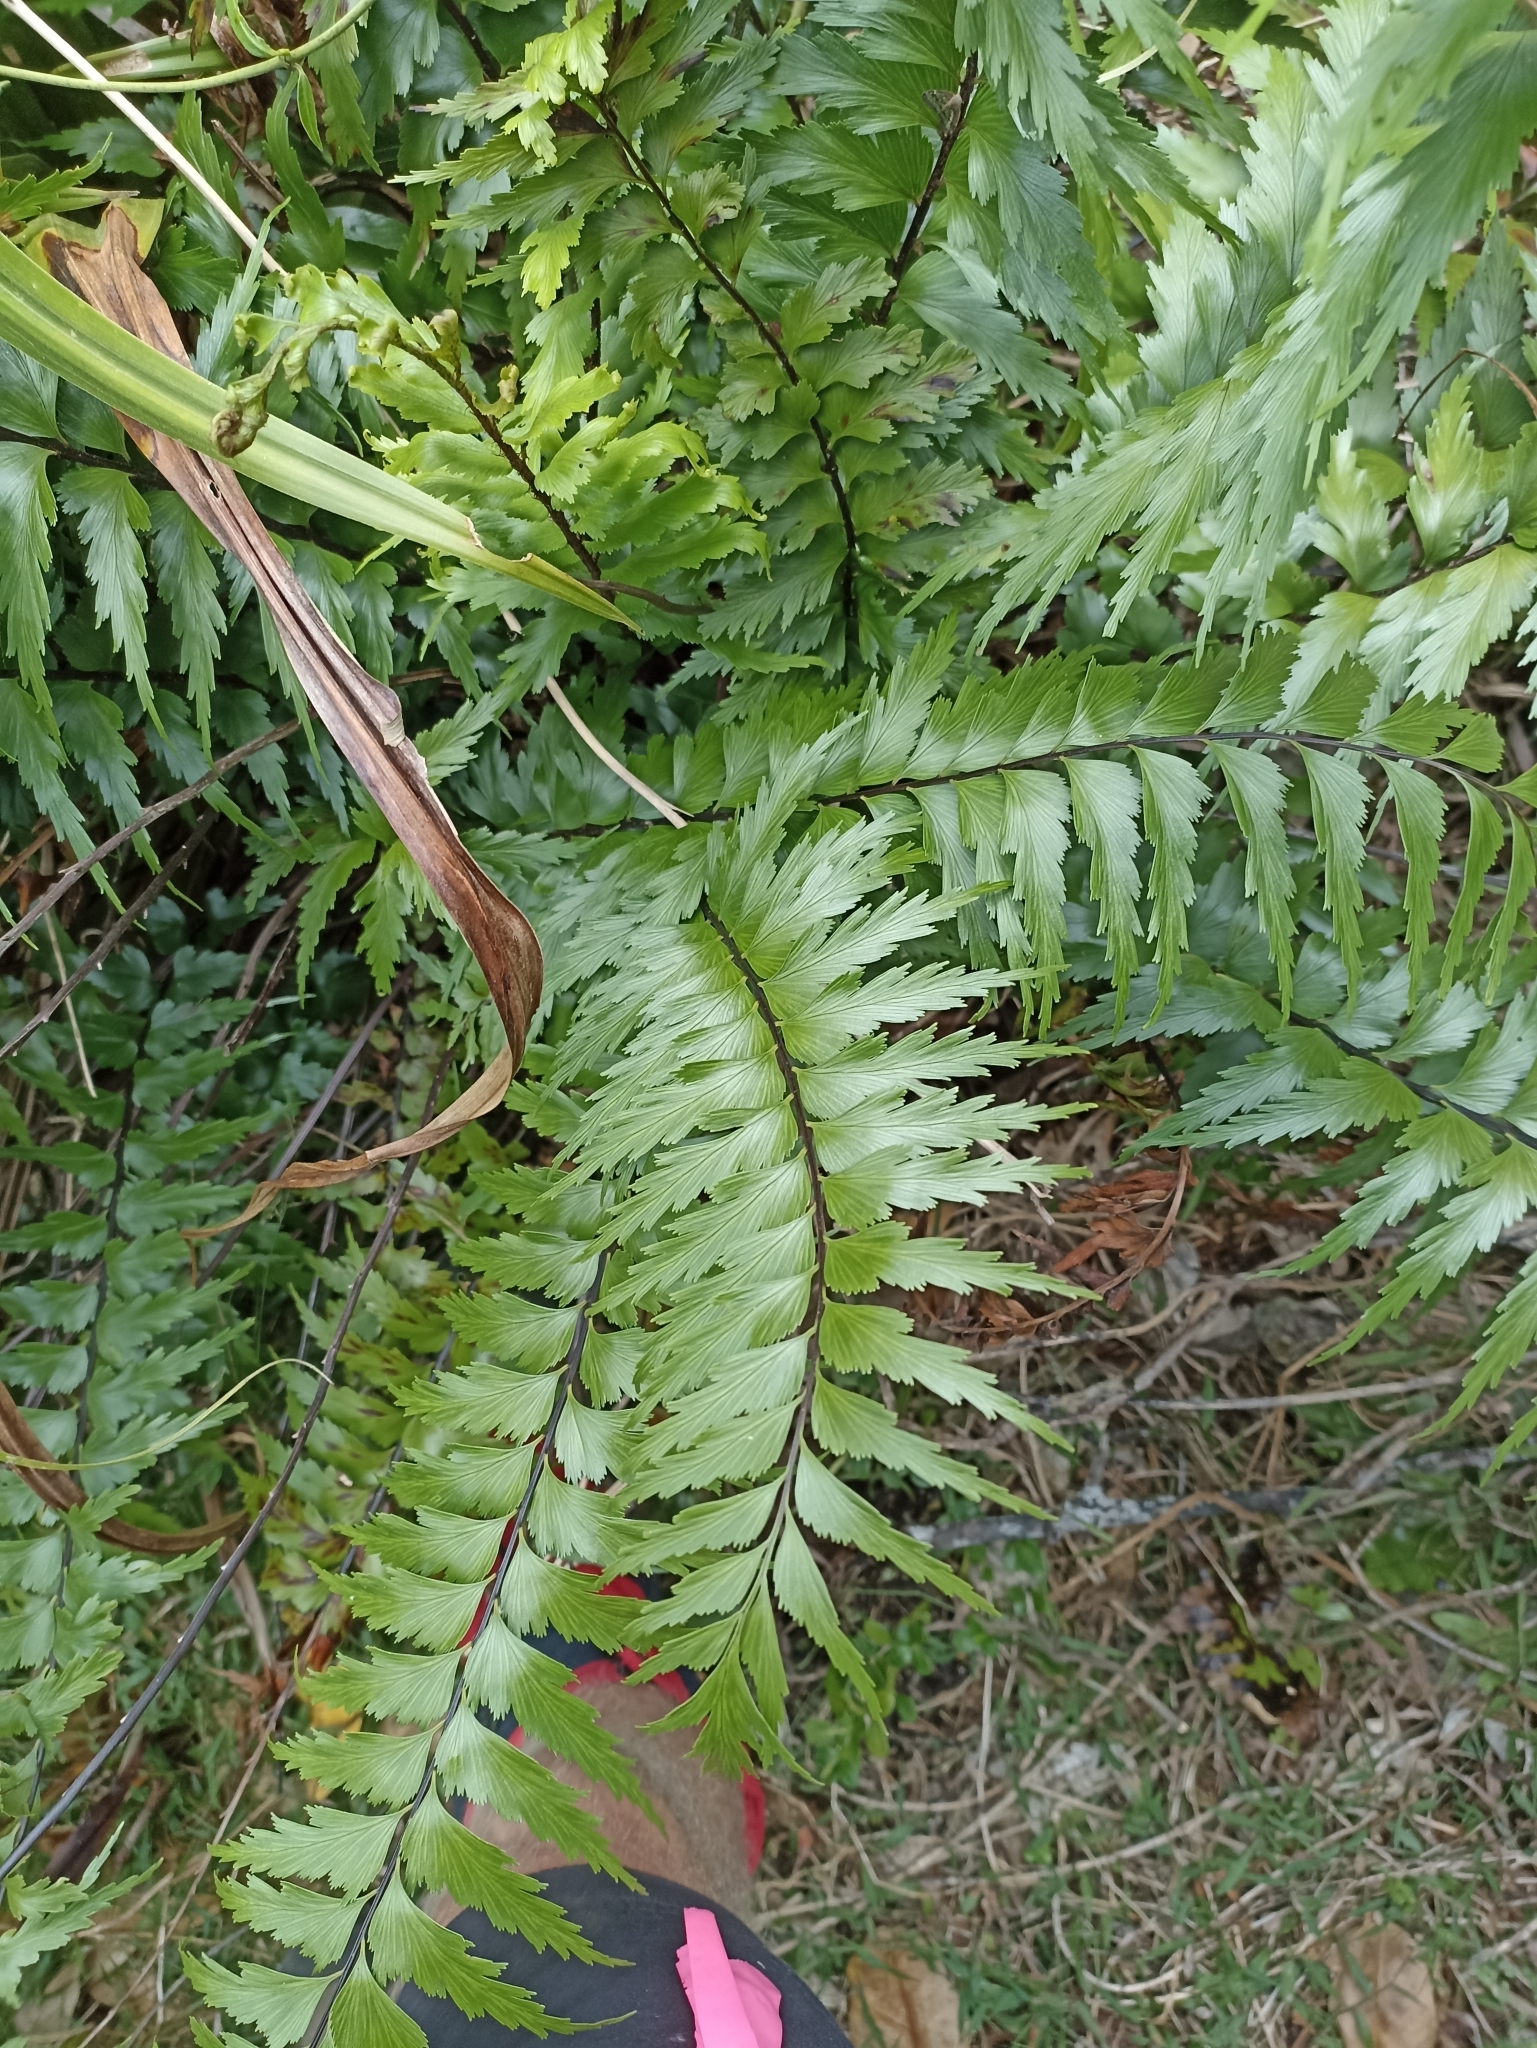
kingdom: Plantae
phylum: Tracheophyta
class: Polypodiopsida
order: Polypodiales
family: Aspleniaceae
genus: Asplenium
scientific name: Asplenium polyodon
